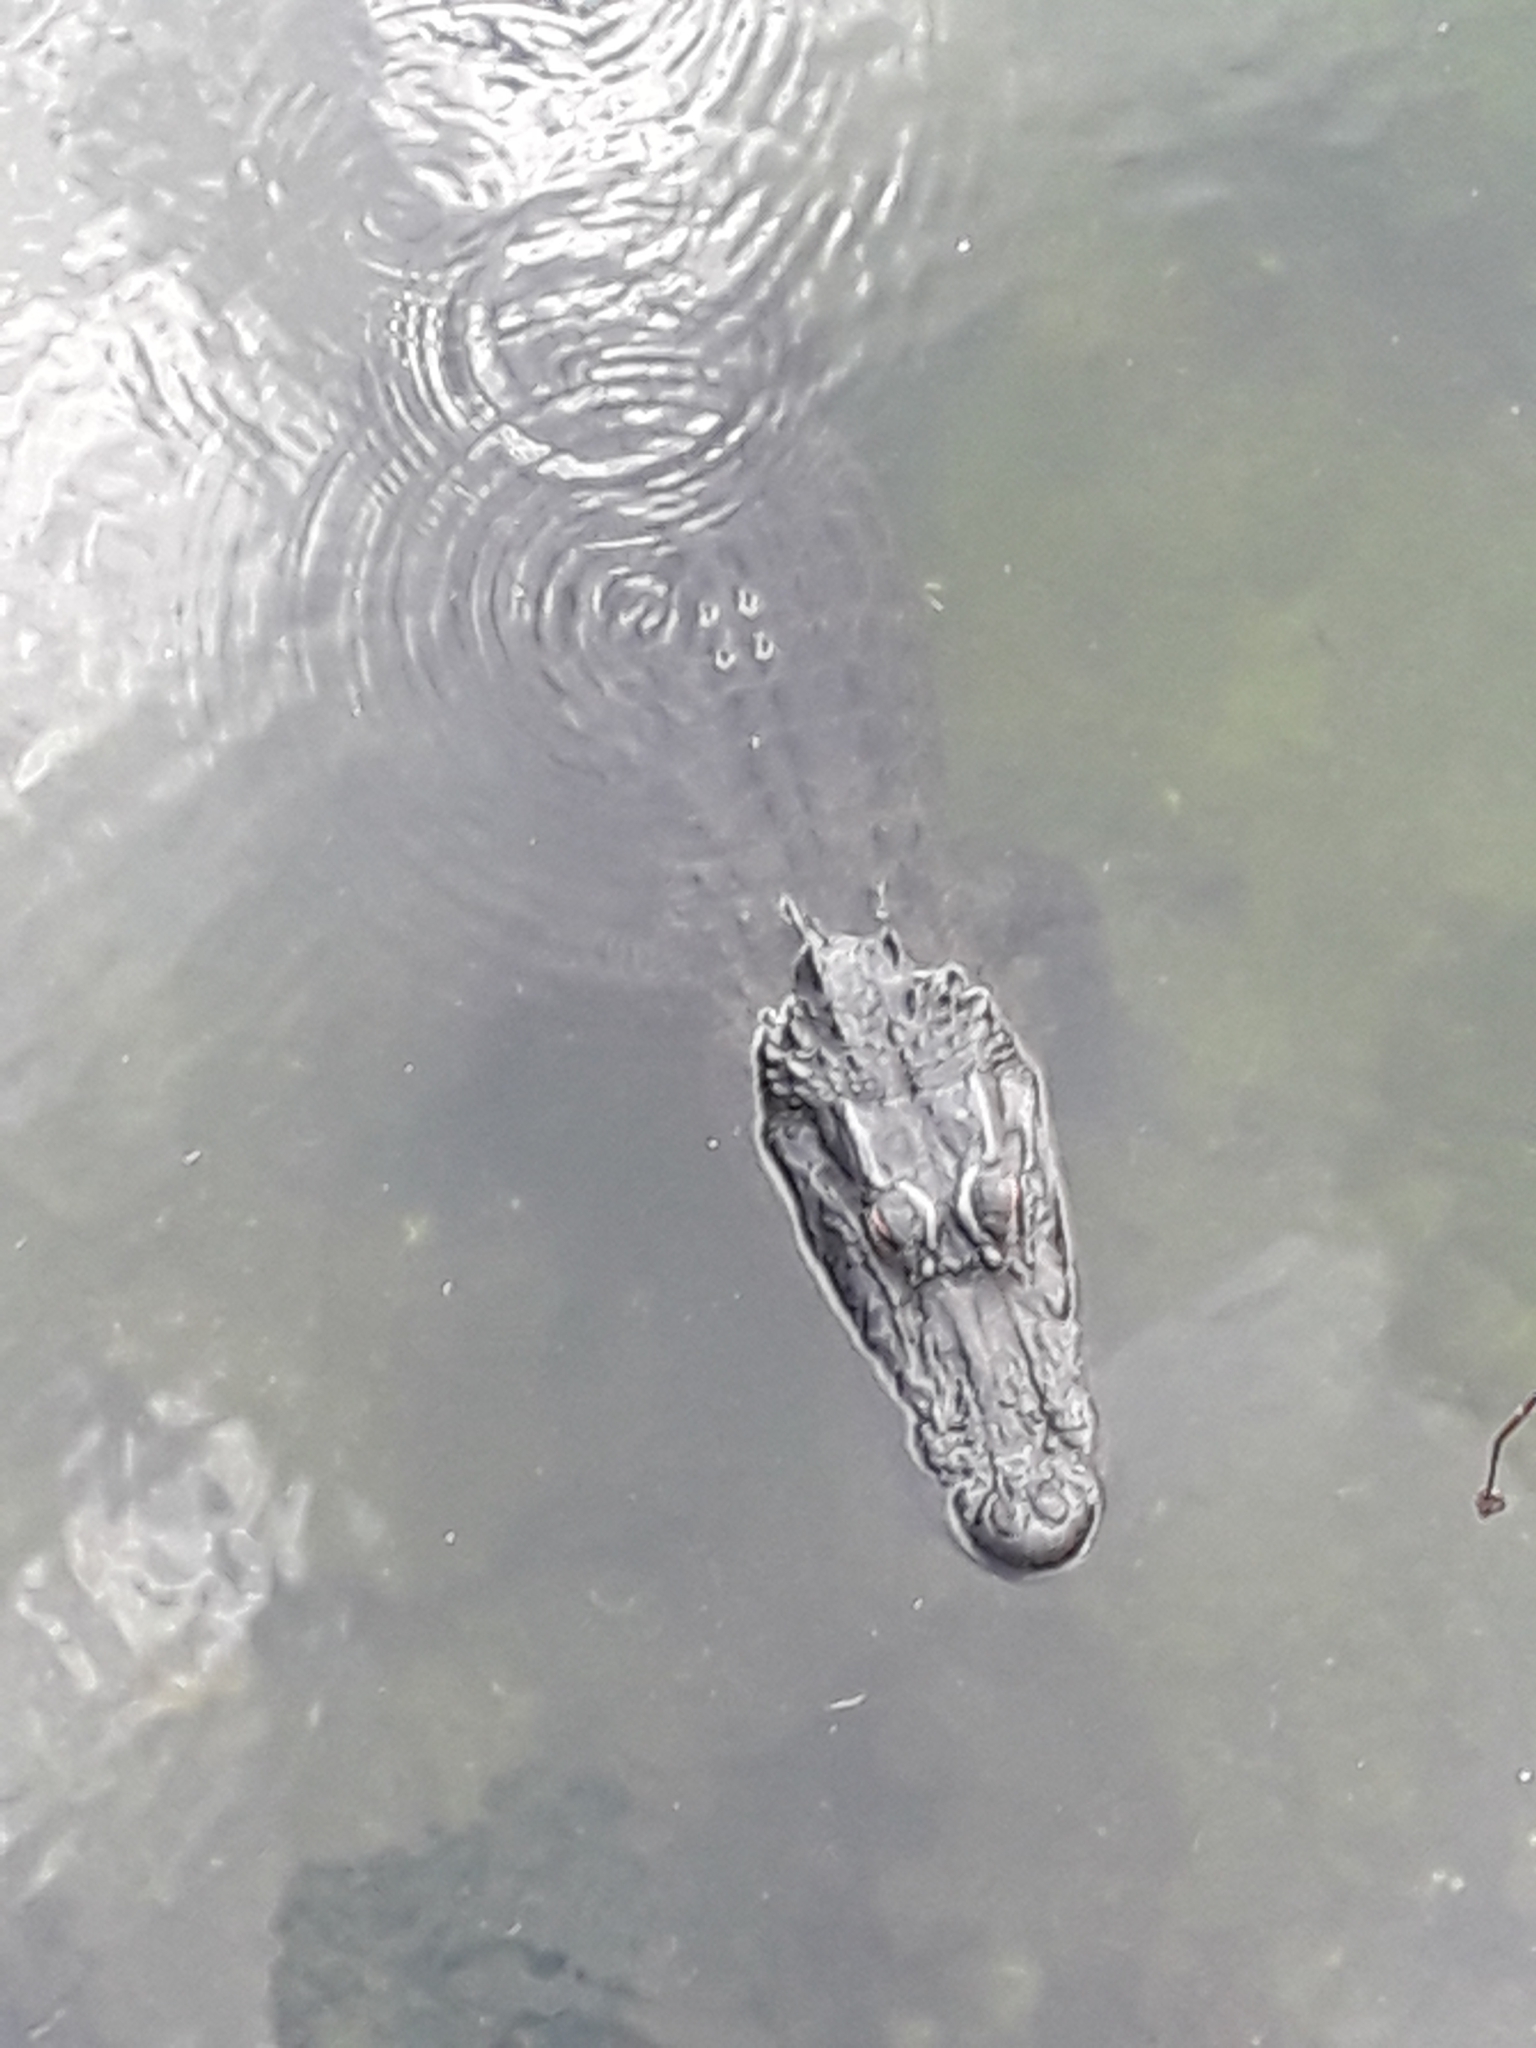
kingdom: Animalia
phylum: Chordata
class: Crocodylia
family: Alligatoridae
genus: Alligator
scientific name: Alligator mississippiensis
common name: American alligator
